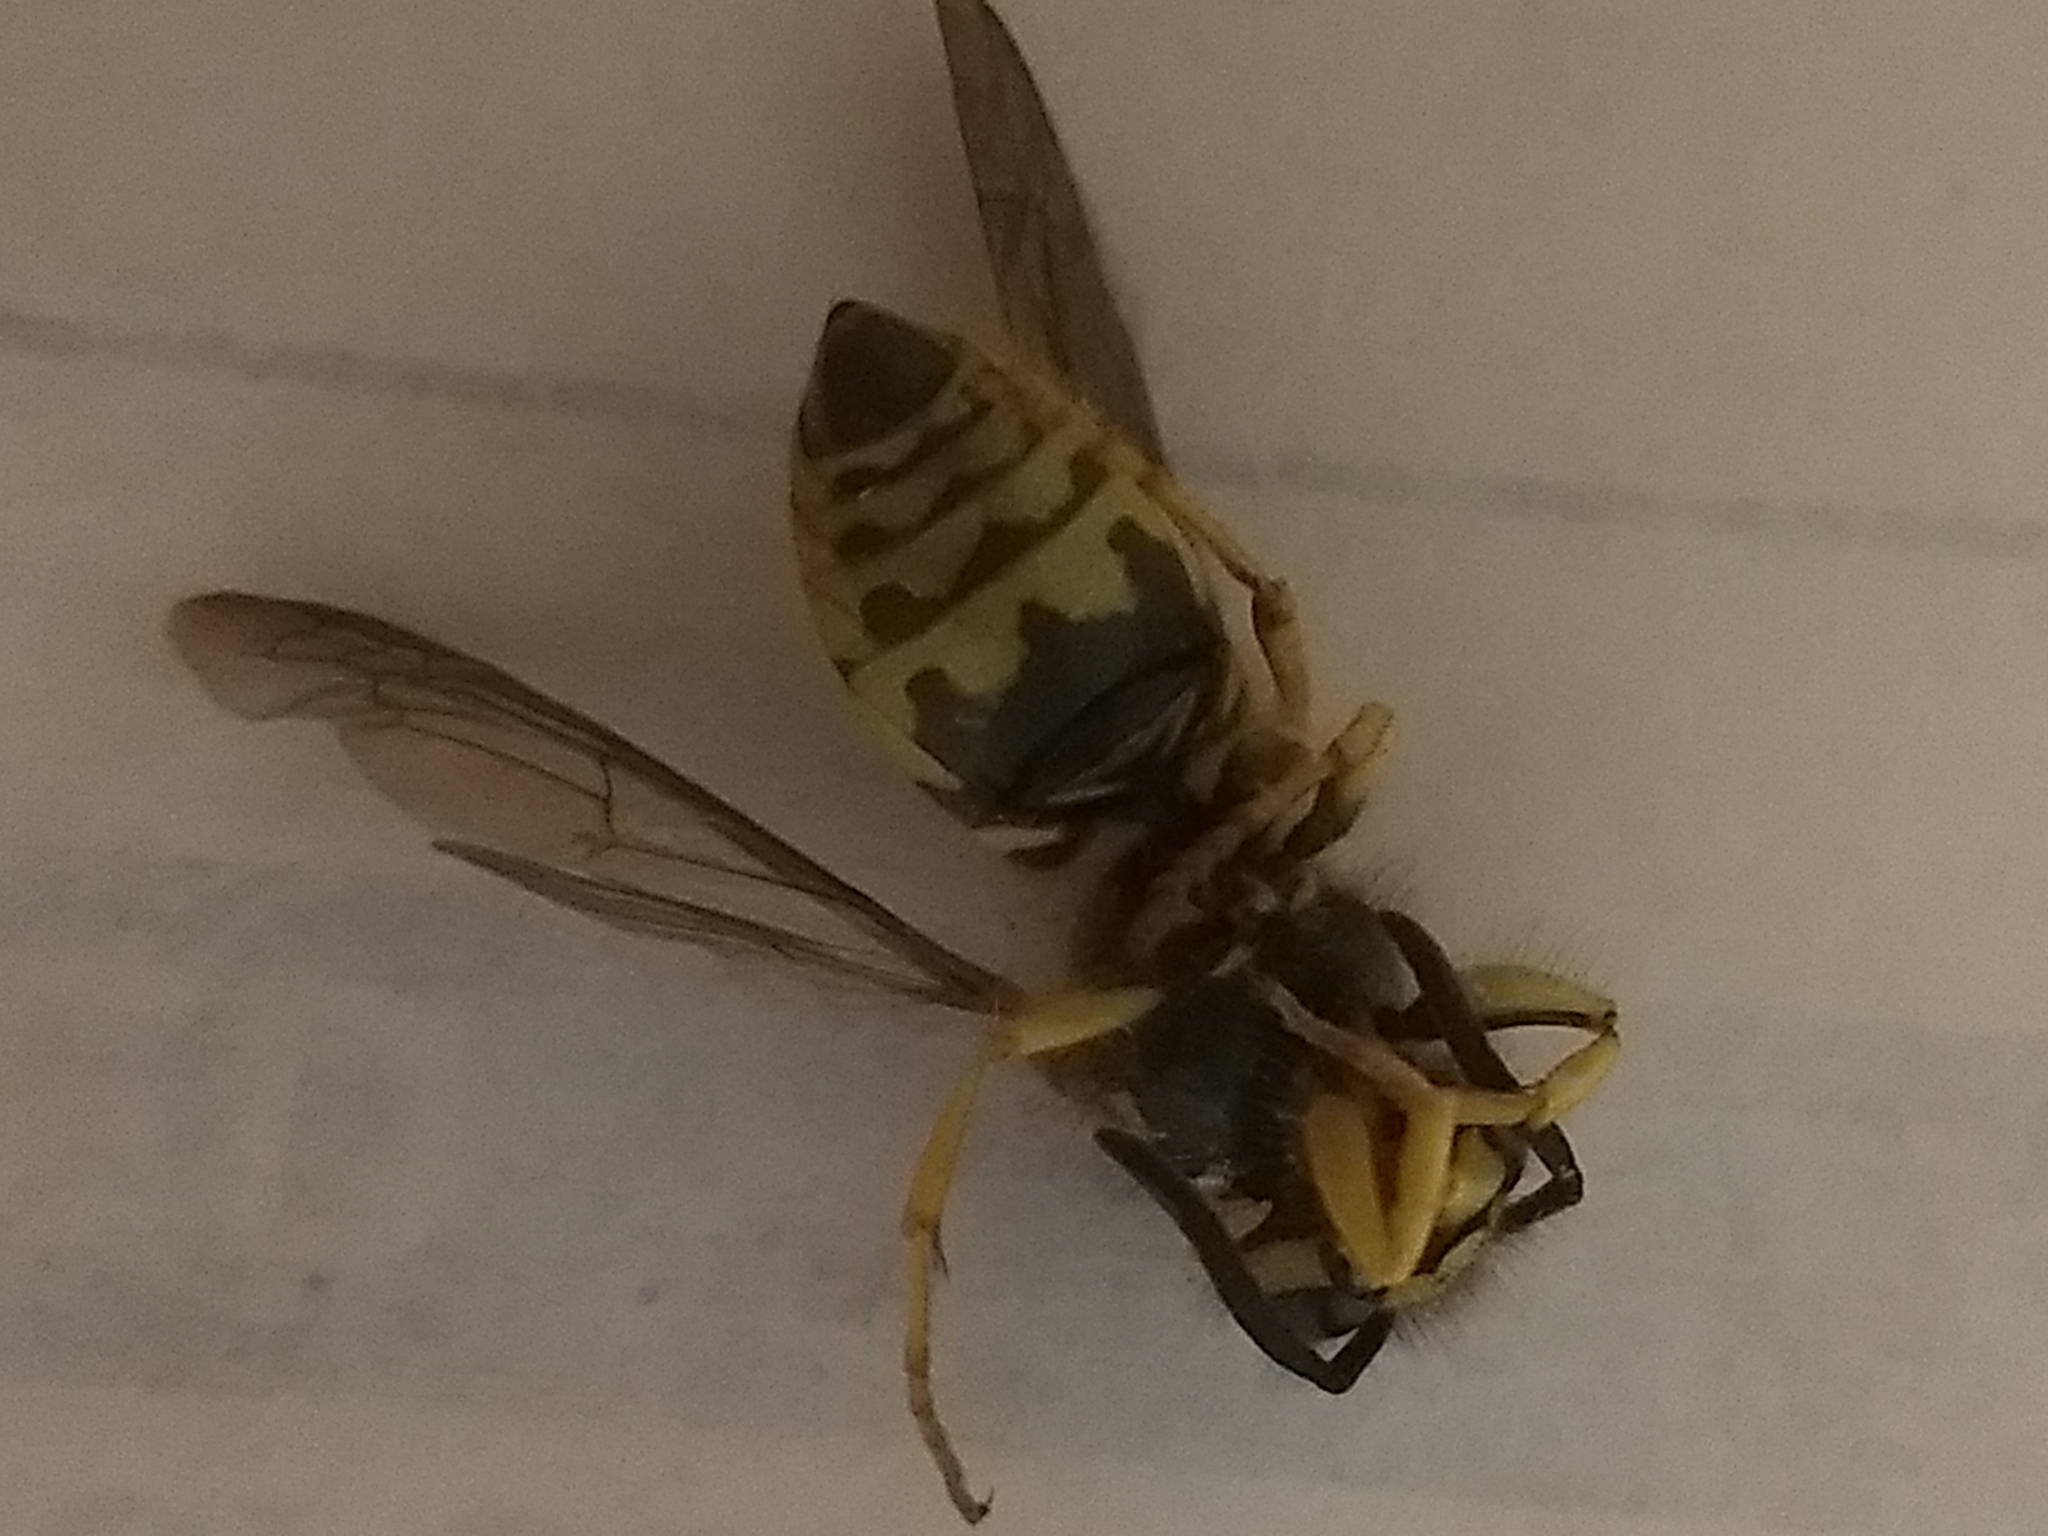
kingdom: Animalia
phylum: Arthropoda
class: Insecta
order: Hymenoptera
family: Vespidae
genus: Vespula
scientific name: Vespula maculifrons
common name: Eastern yellowjacket
